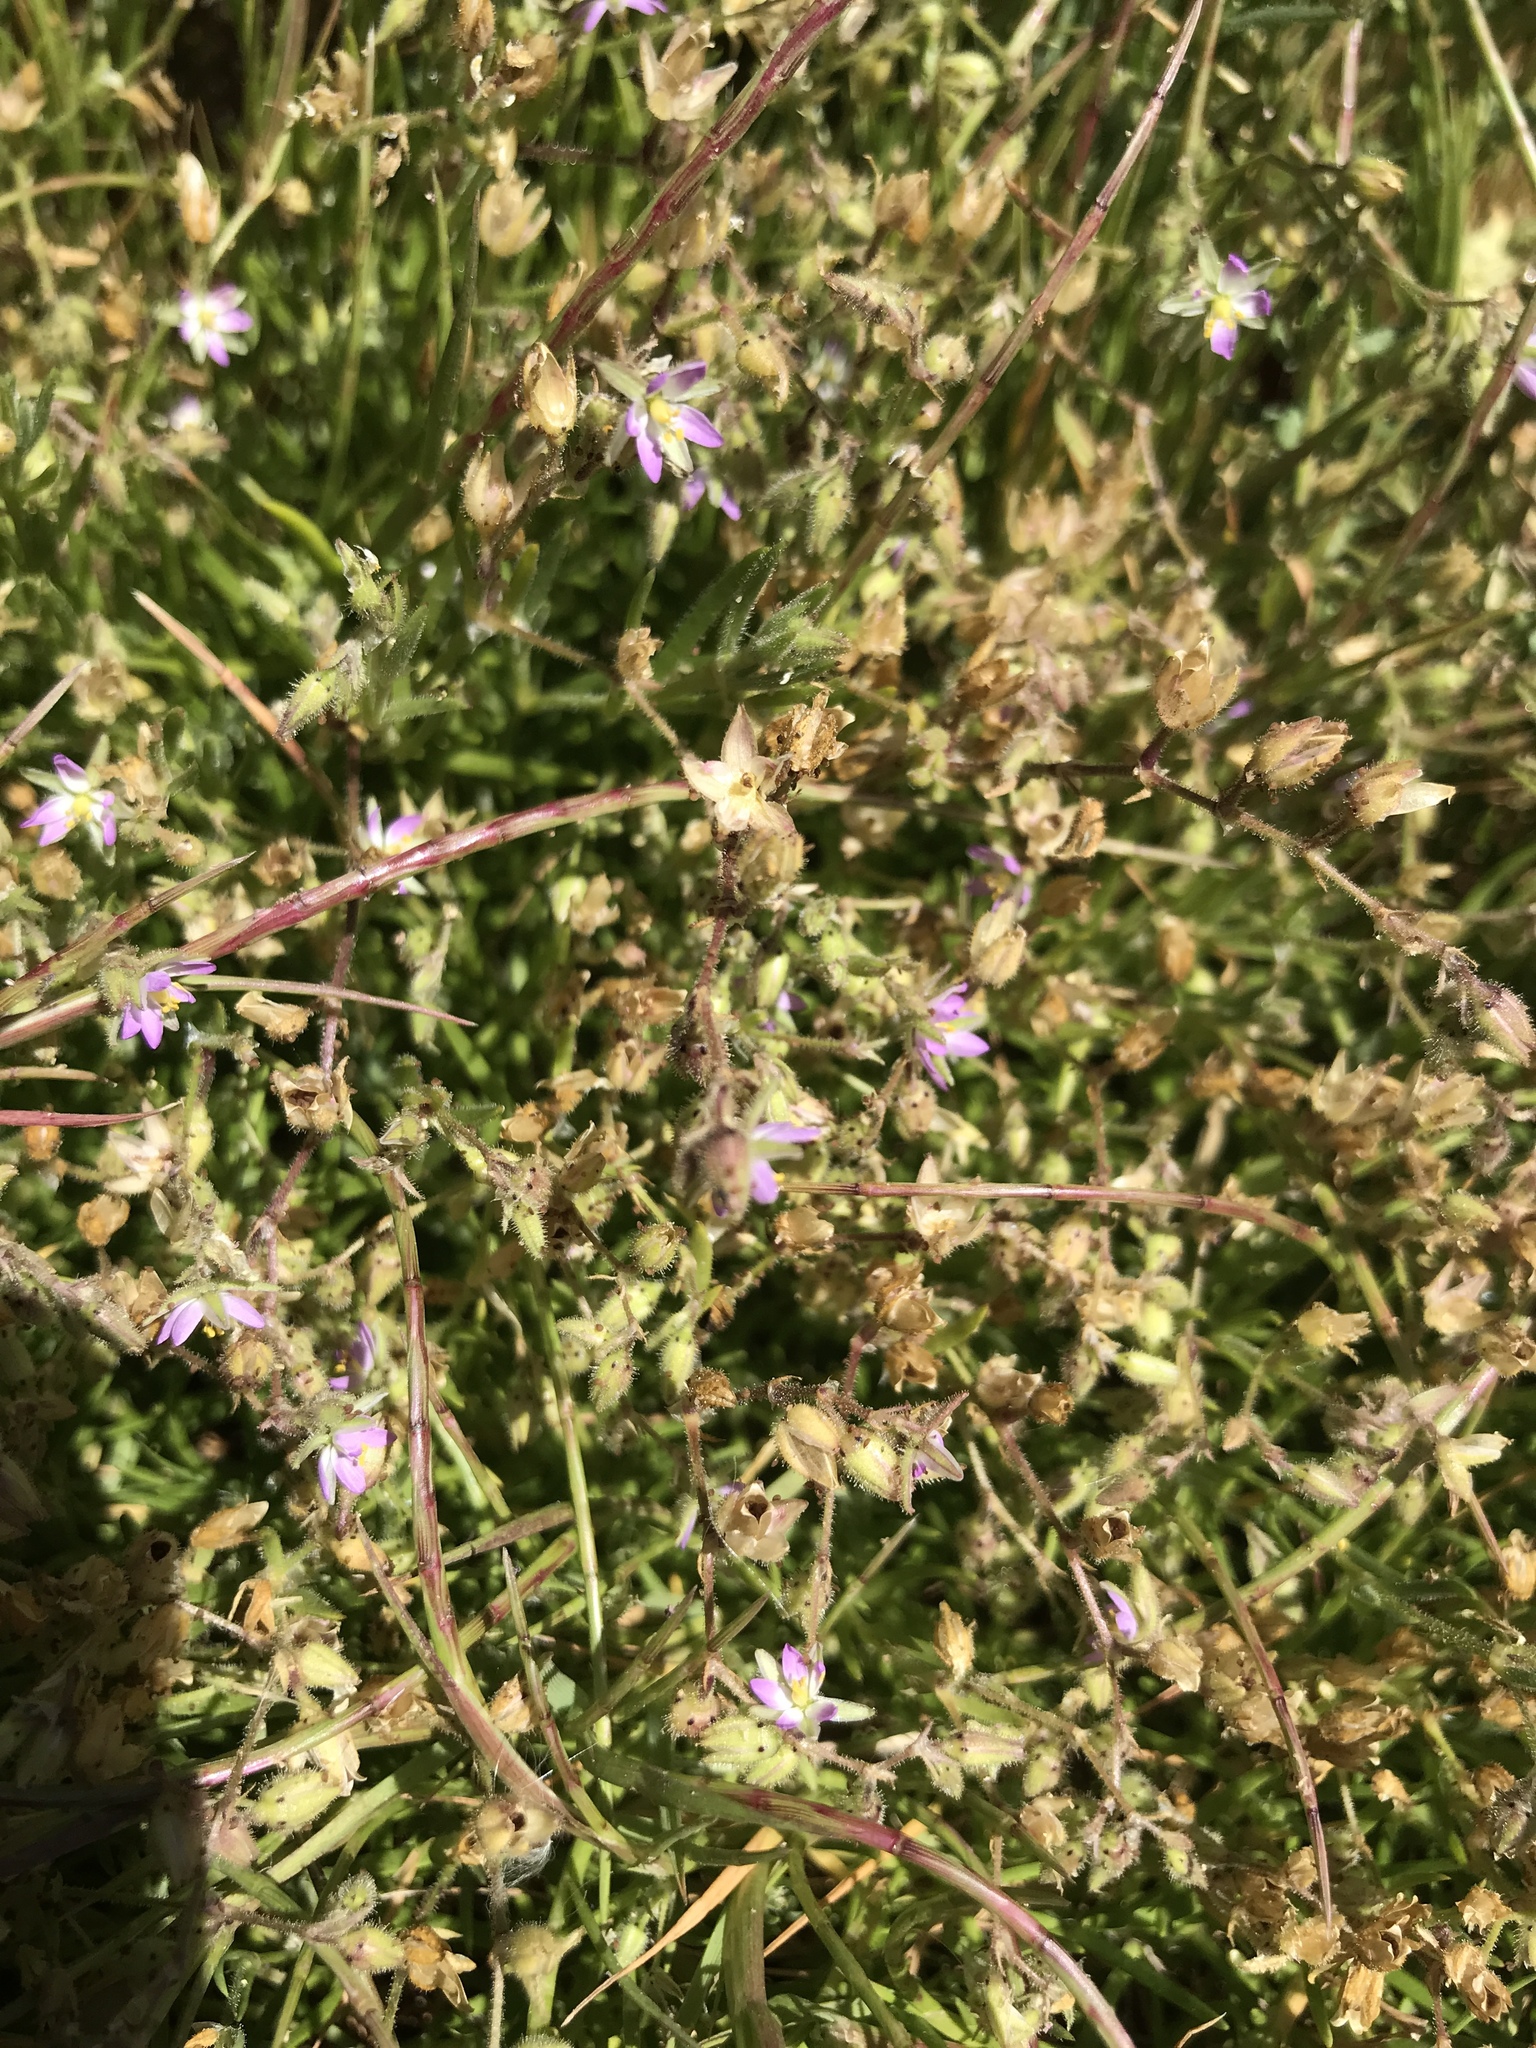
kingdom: Plantae
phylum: Tracheophyta
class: Magnoliopsida
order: Caryophyllales
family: Caryophyllaceae
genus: Spergularia
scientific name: Spergularia marina
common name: Lesser sea-spurrey
